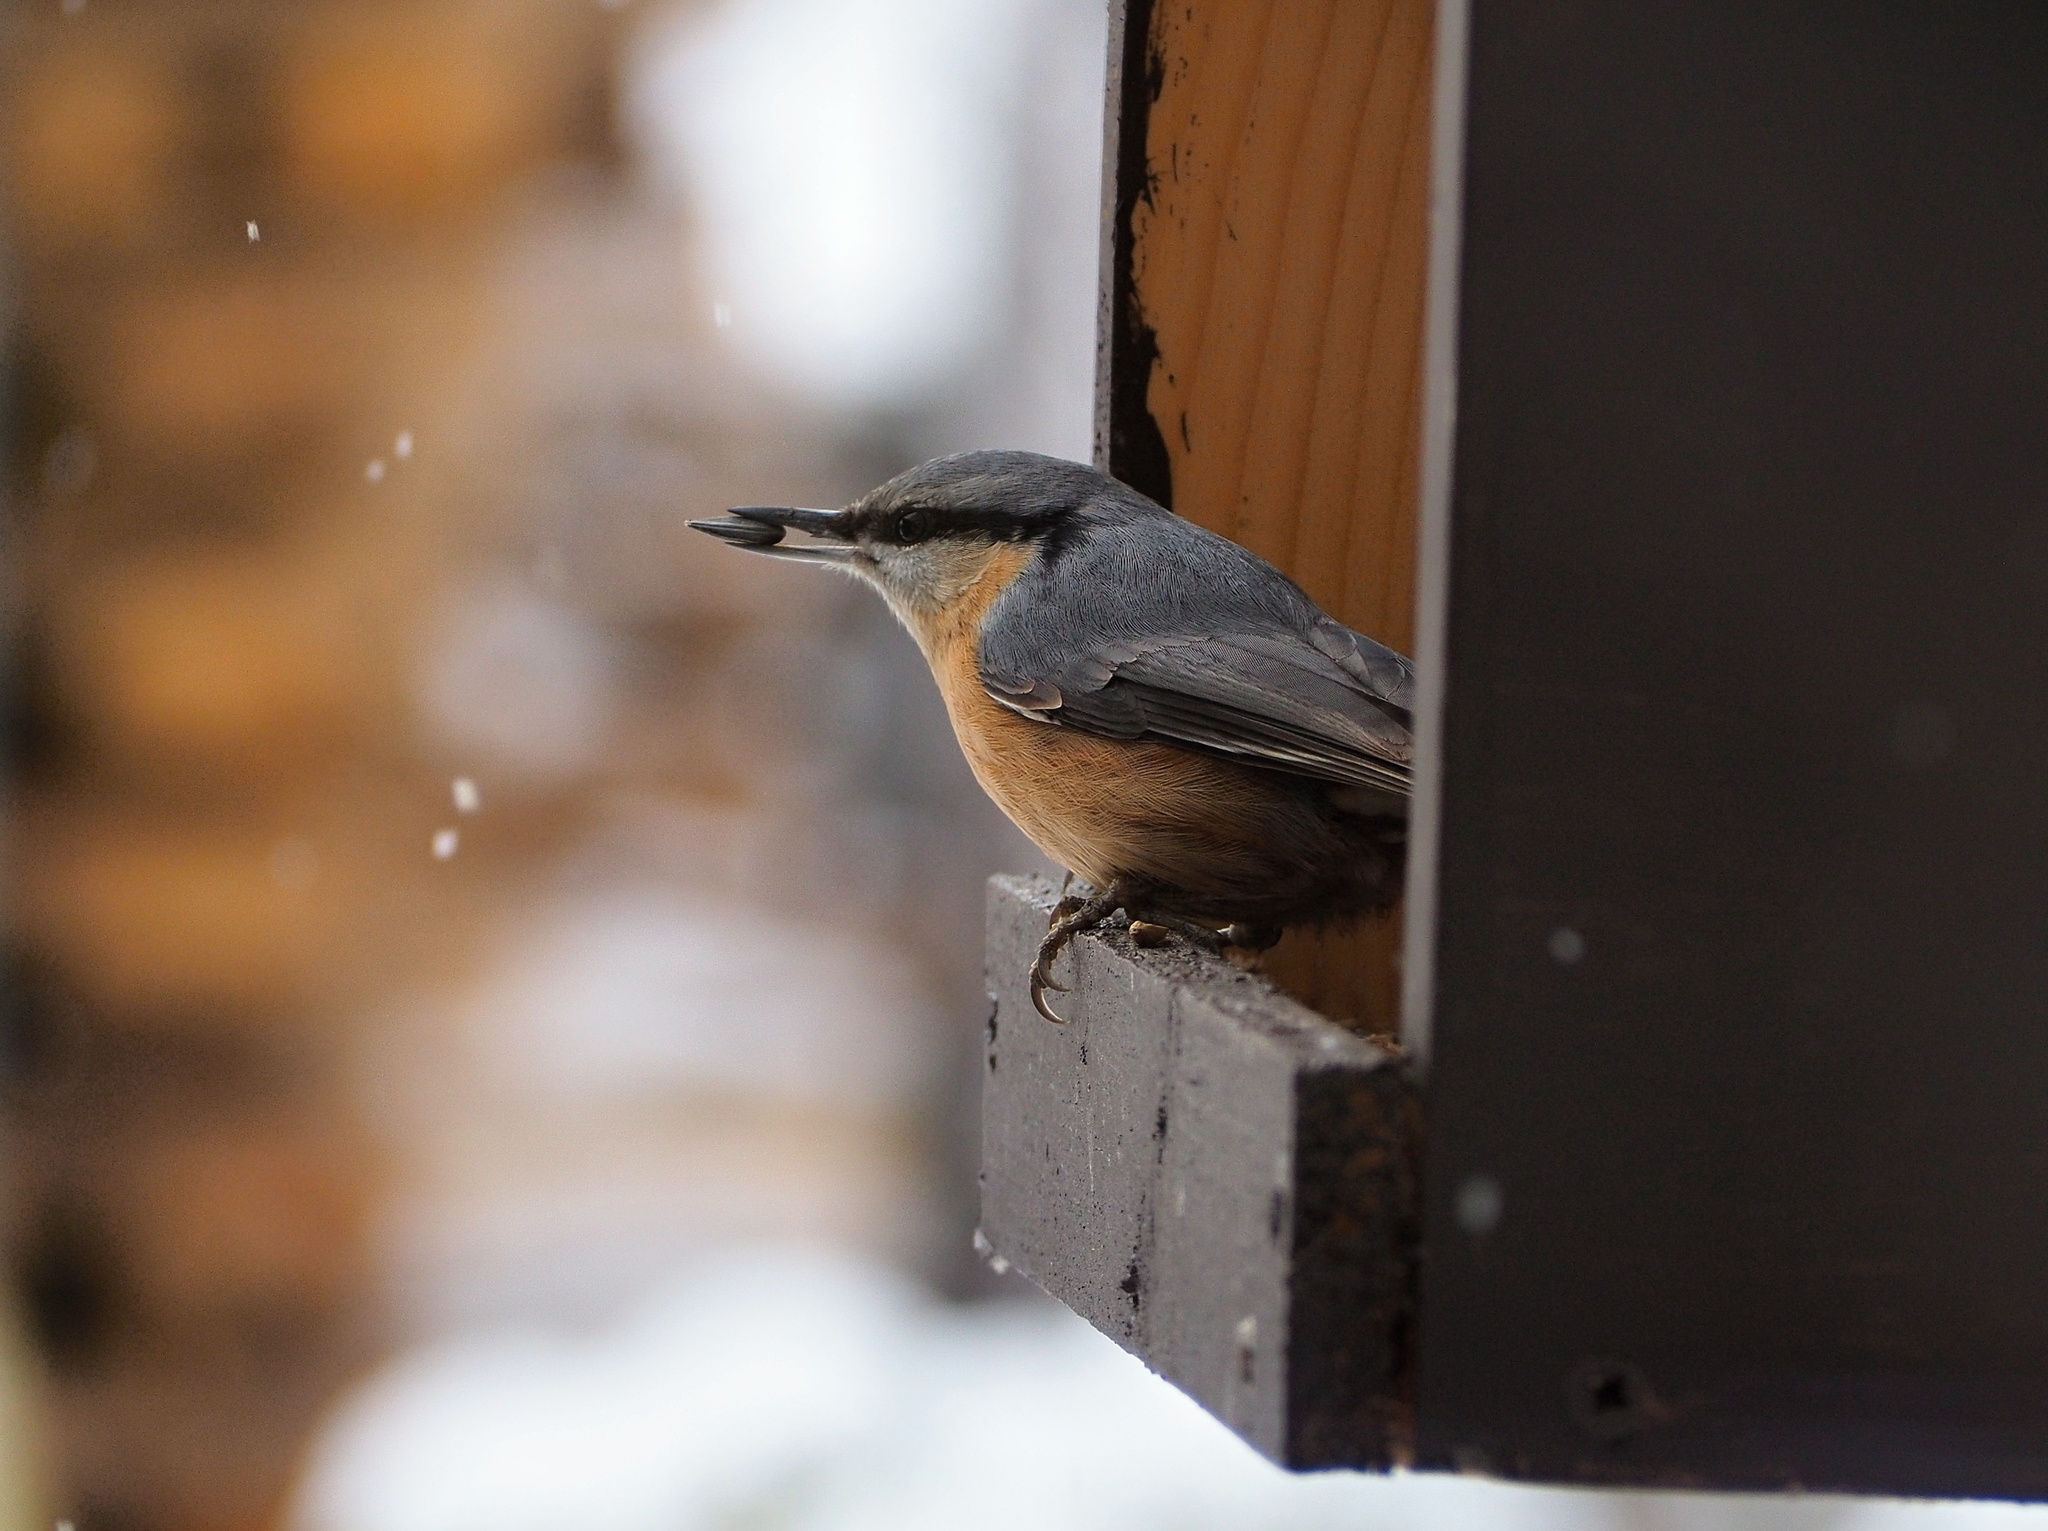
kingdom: Animalia
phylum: Chordata
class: Aves
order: Passeriformes
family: Sittidae
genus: Sitta
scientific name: Sitta europaea
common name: Eurasian nuthatch
